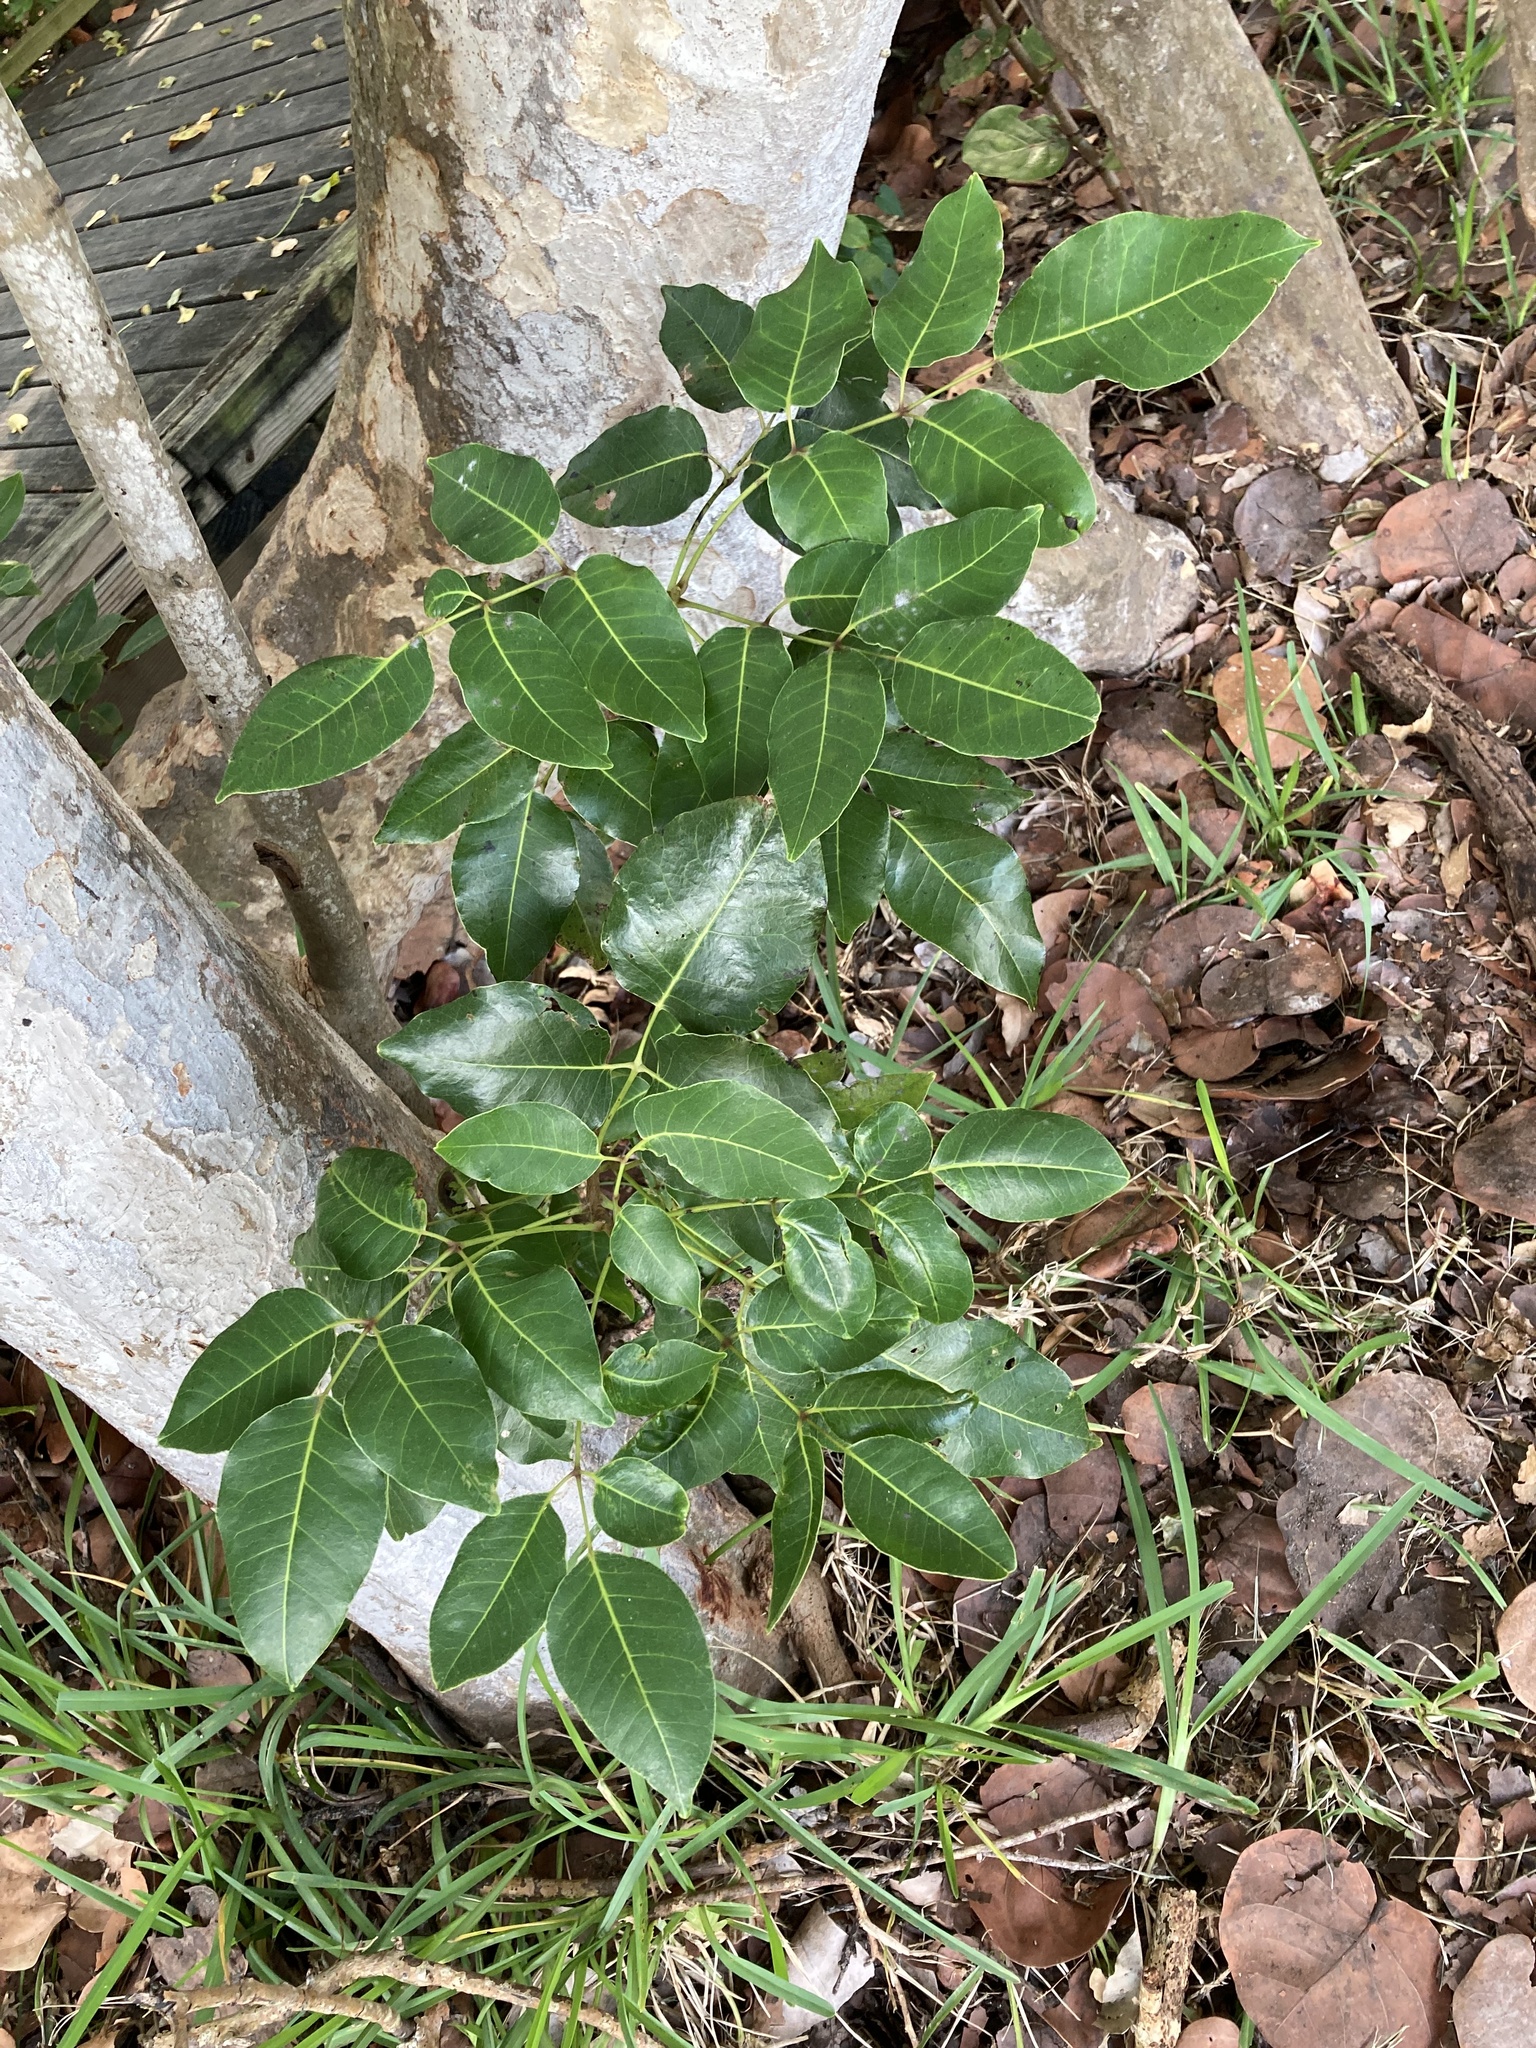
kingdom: Plantae
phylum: Tracheophyta
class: Magnoliopsida
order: Sapindales
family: Anacardiaceae
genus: Metopium
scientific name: Metopium toxiferum
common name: Florida poisontree
